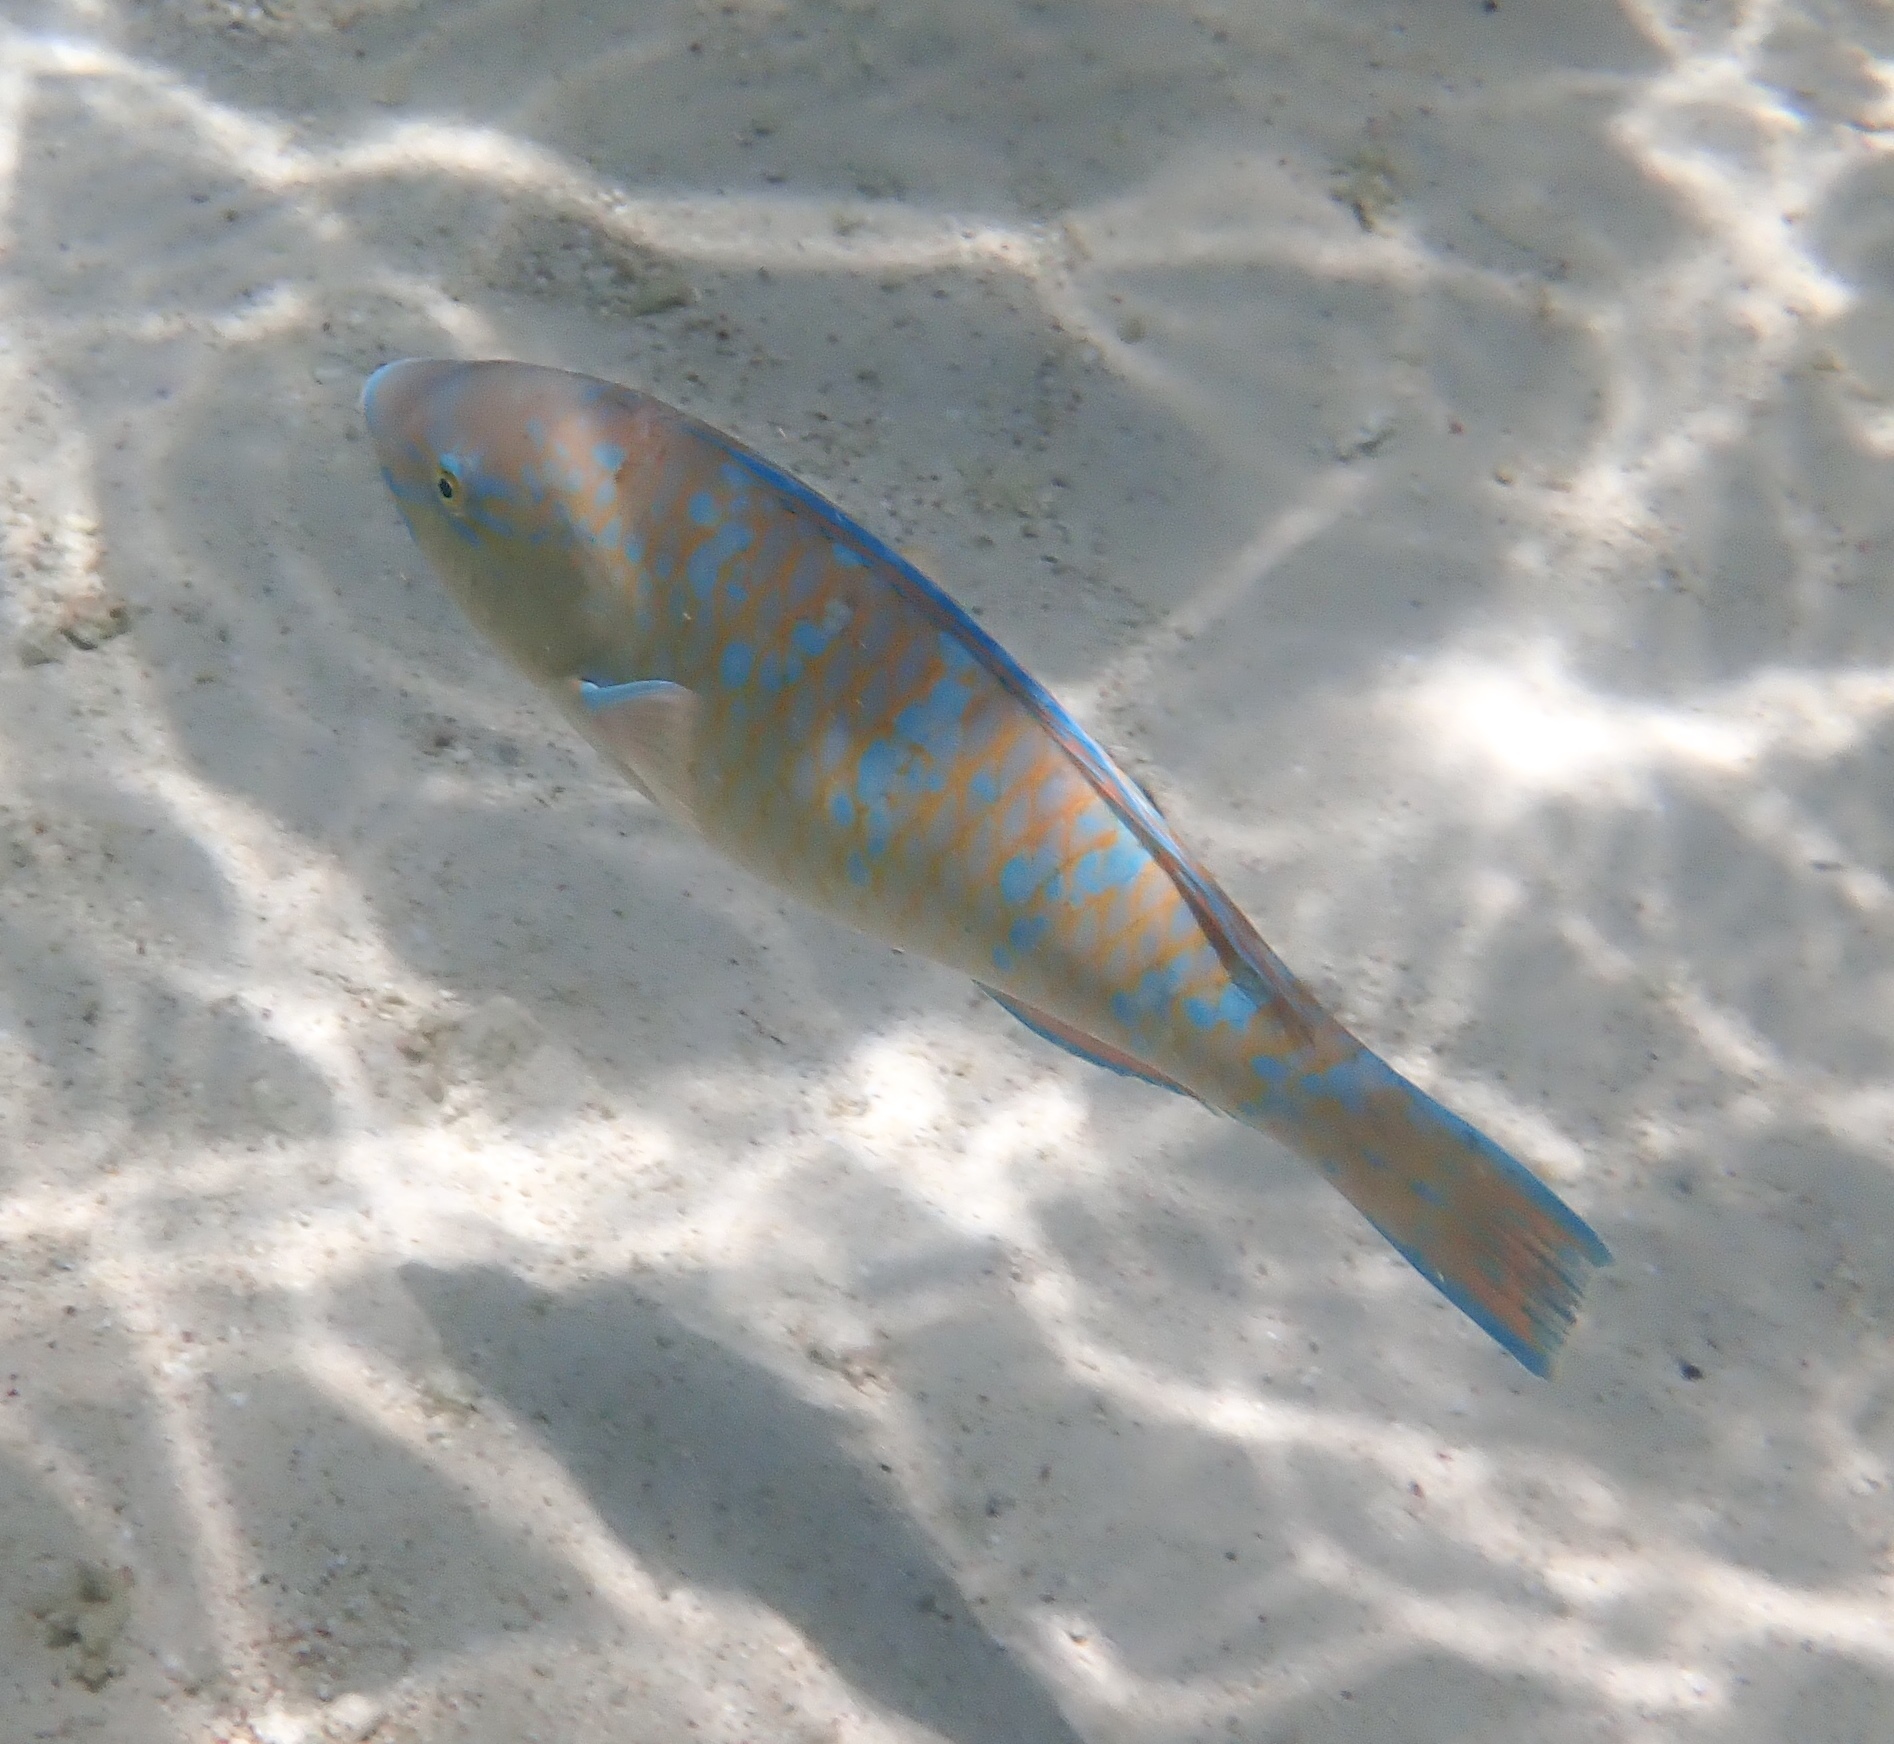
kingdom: Animalia
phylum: Chordata
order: Perciformes
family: Scaridae
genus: Scarus
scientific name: Scarus ghobban
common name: Blue-barred parrotfish
